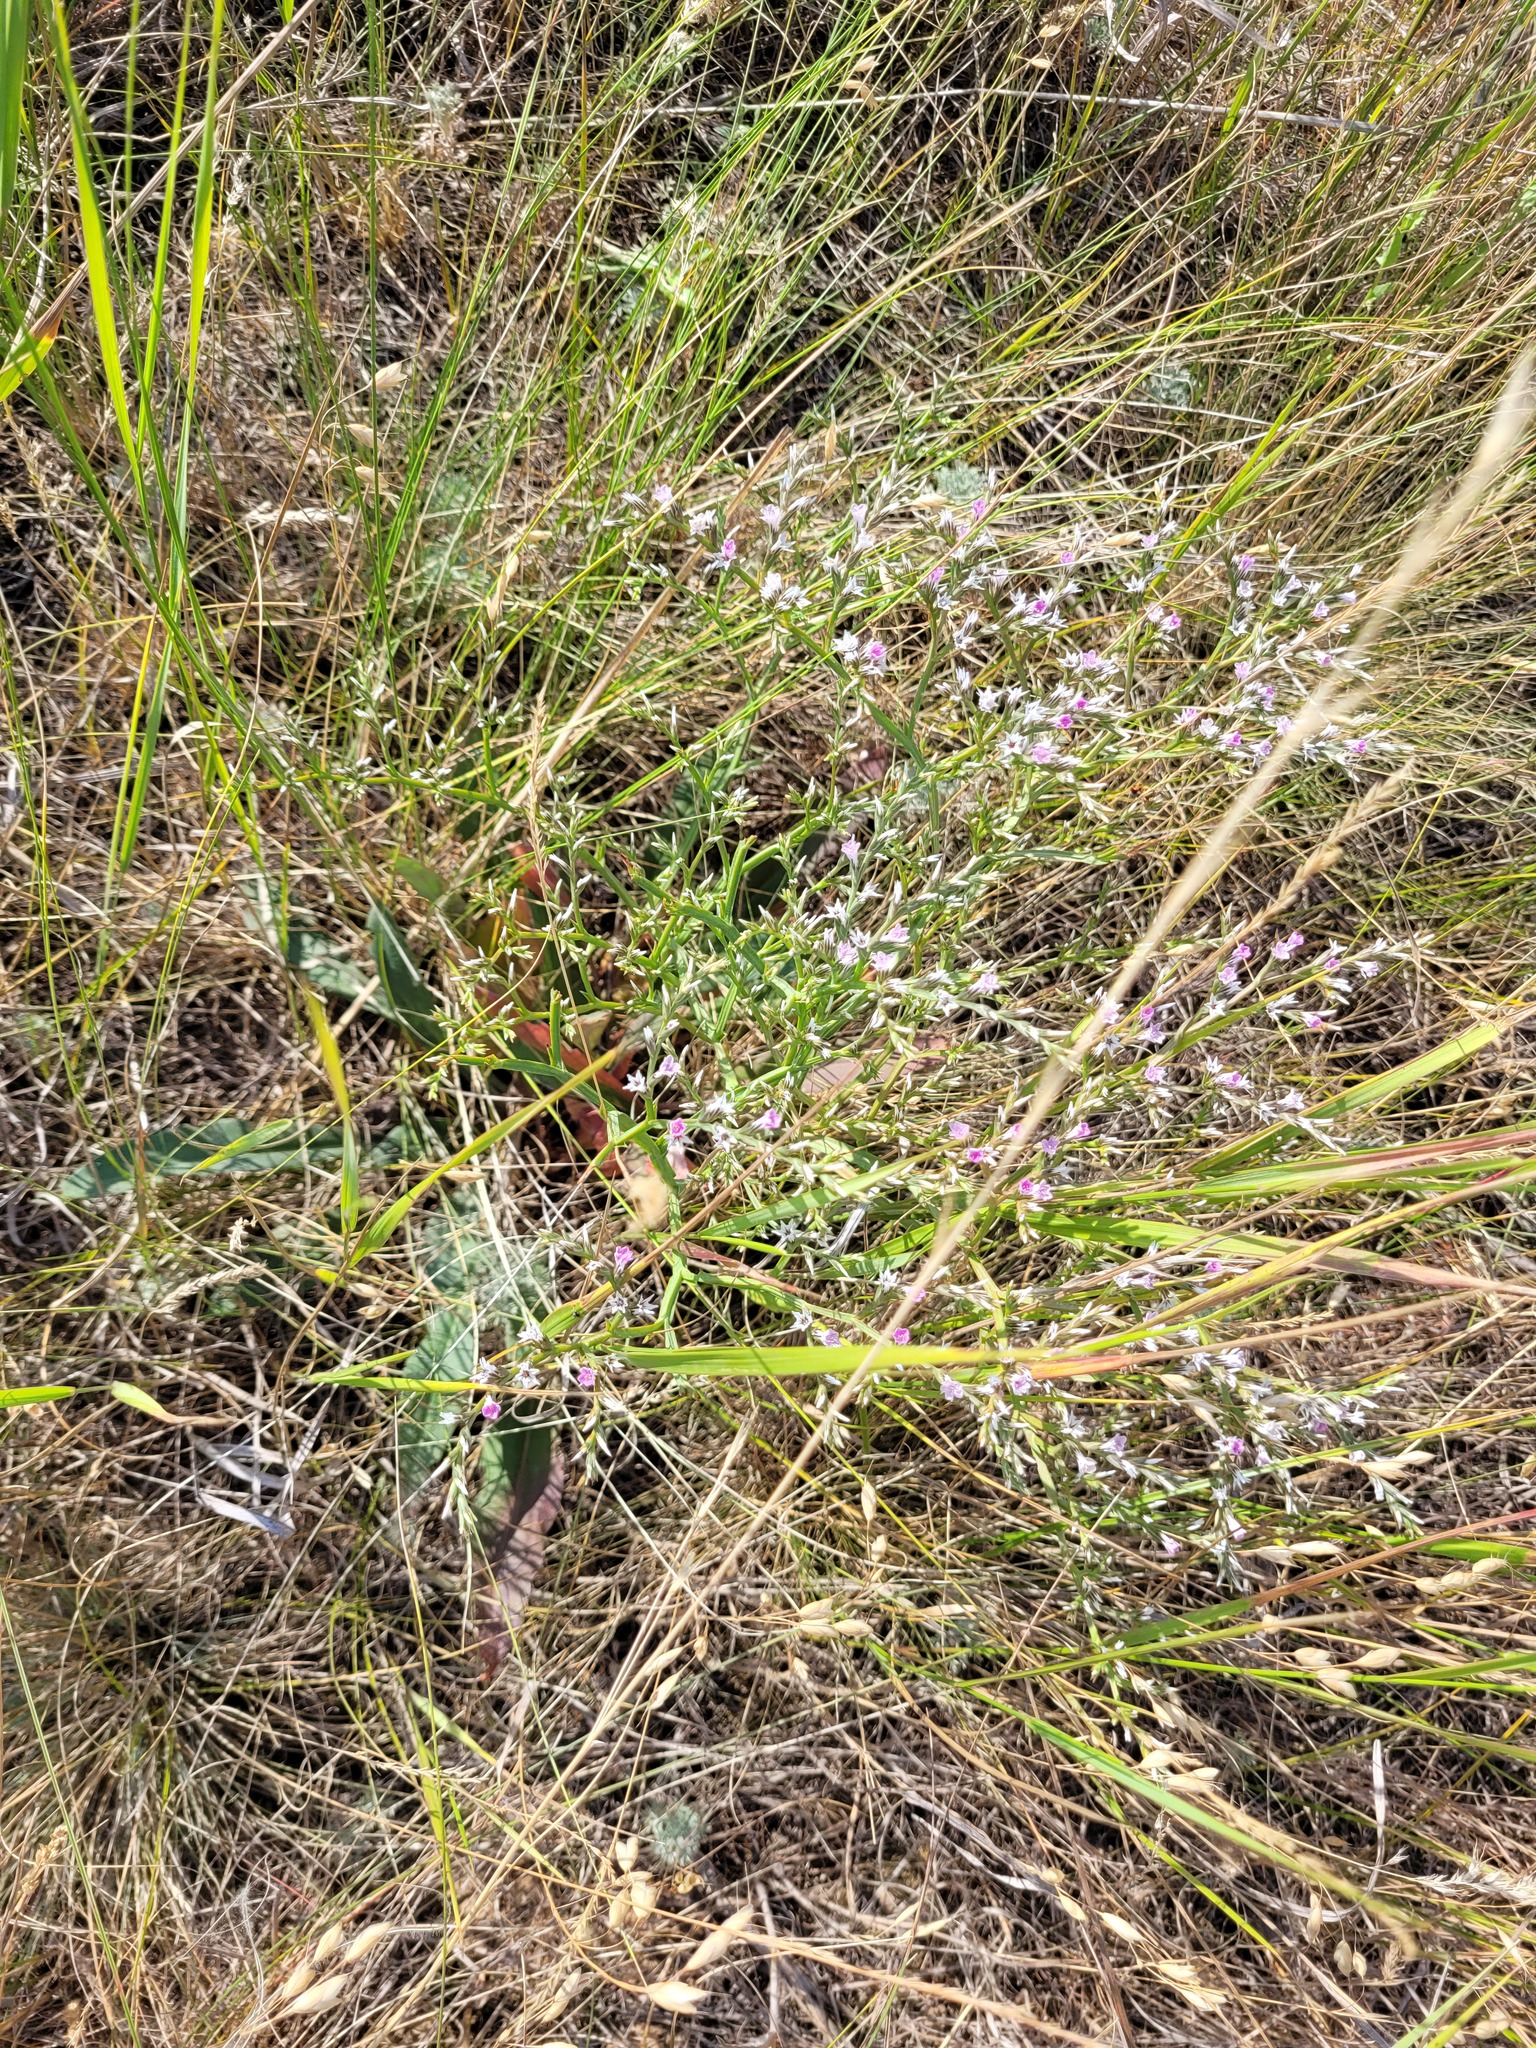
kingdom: Plantae
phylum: Tracheophyta
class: Magnoliopsida
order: Caryophyllales
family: Plumbaginaceae
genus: Goniolimon
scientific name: Goniolimon tataricum
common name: Statice
